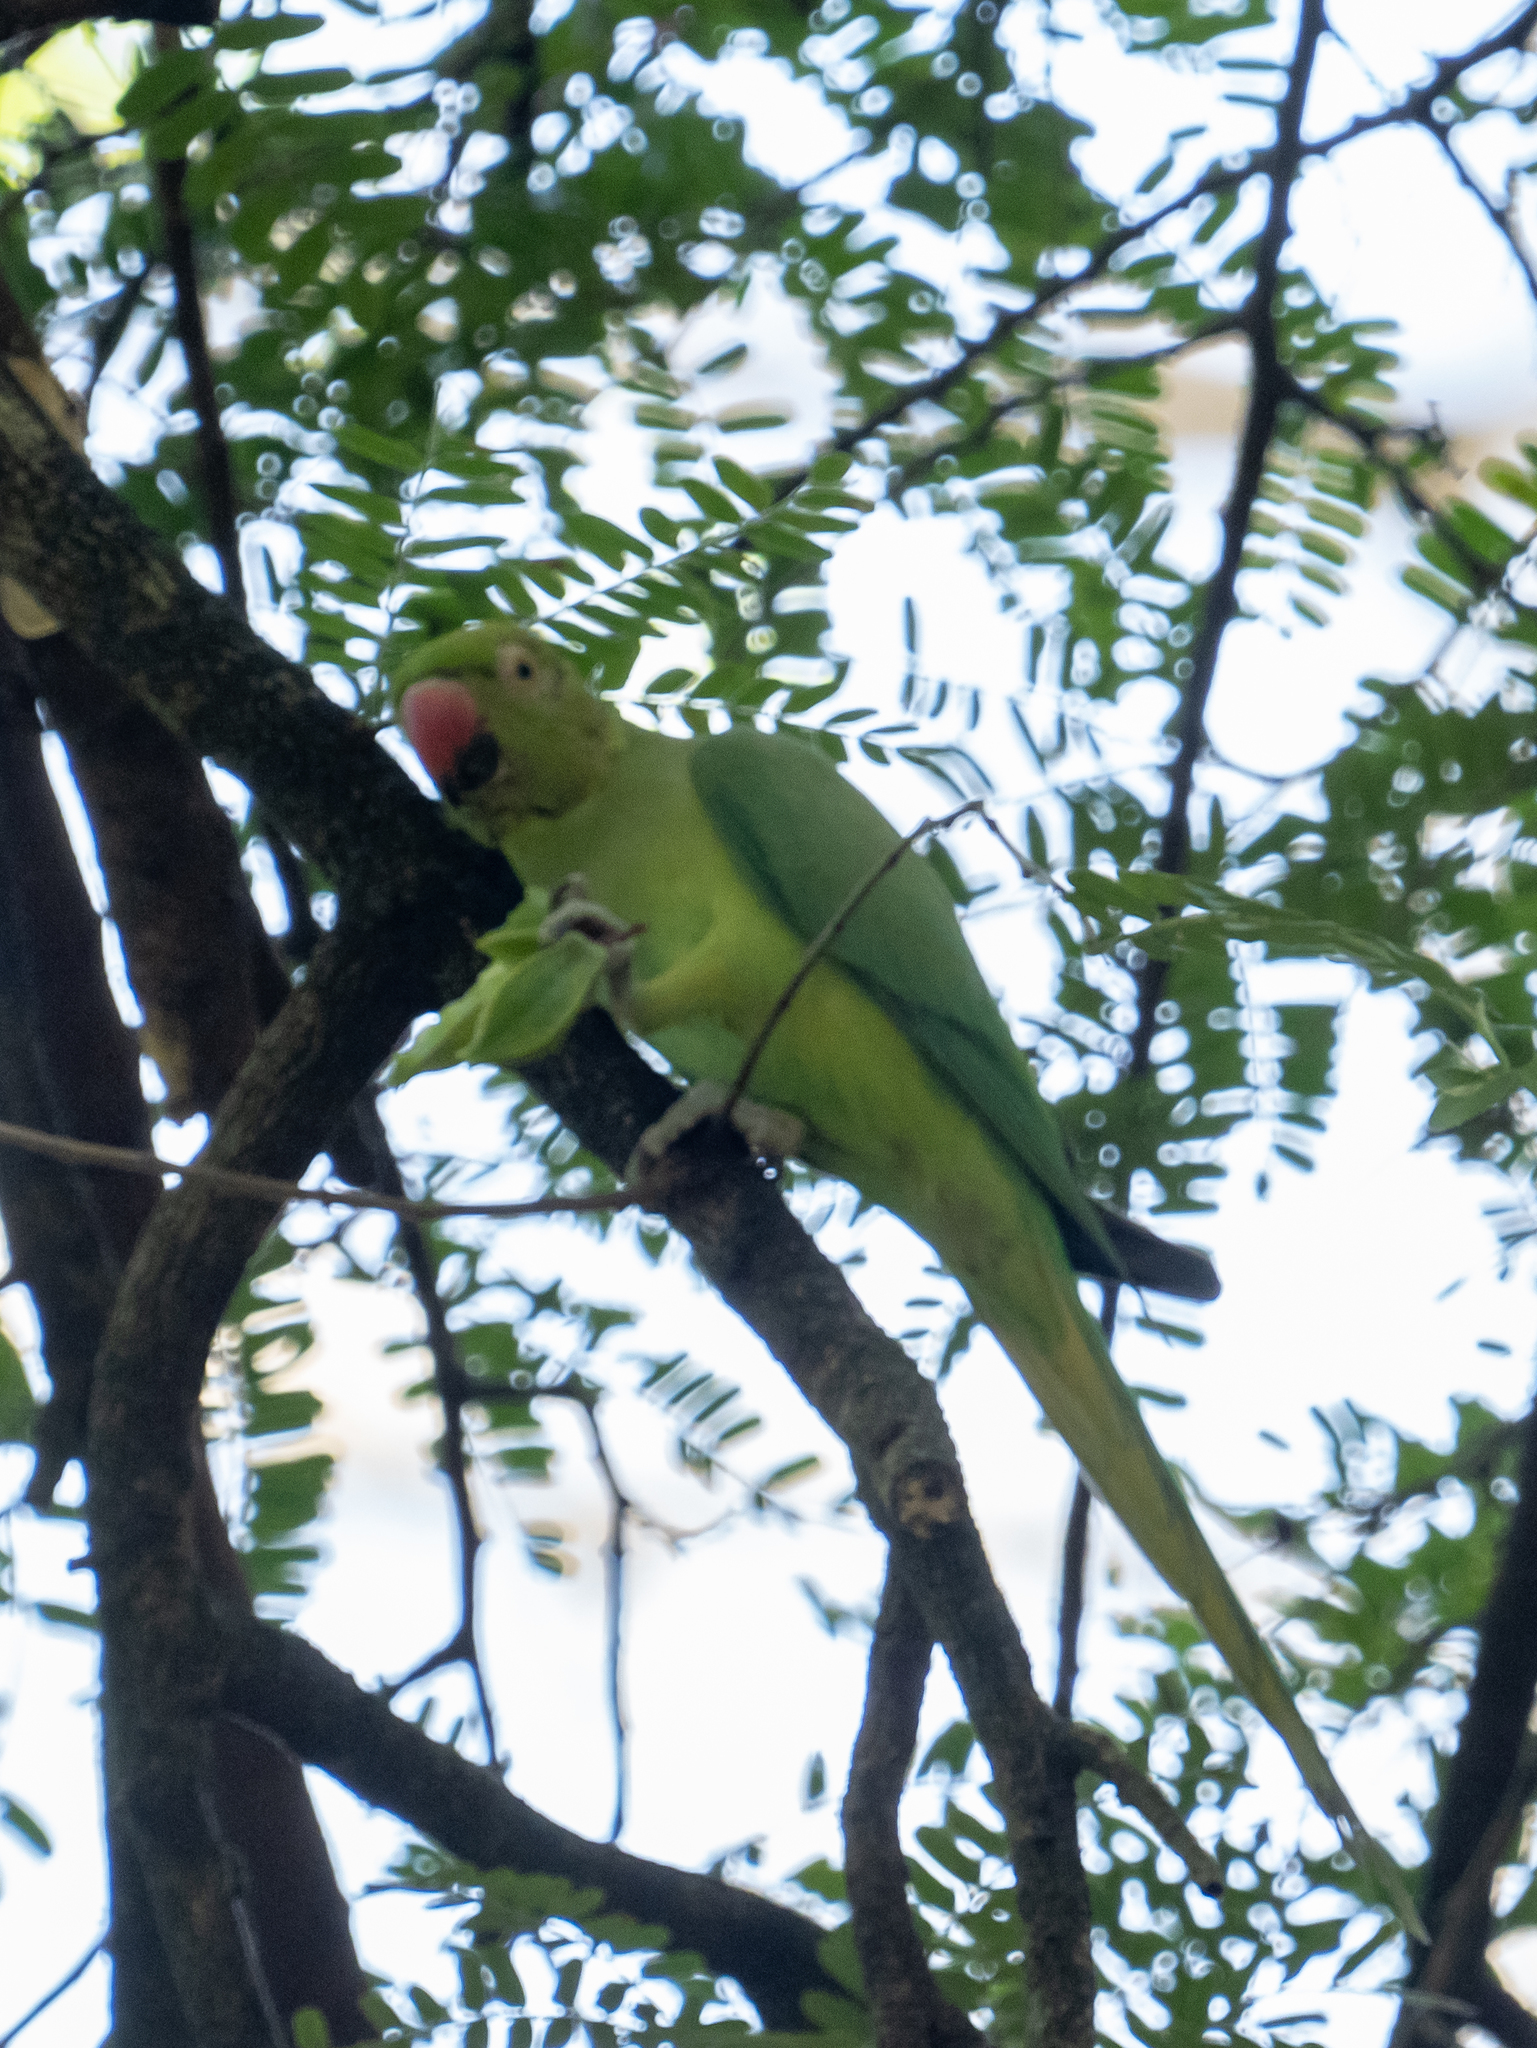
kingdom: Animalia
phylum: Chordata
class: Aves
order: Psittaciformes
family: Psittacidae
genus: Psittacula
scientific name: Psittacula krameri
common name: Rose-ringed parakeet
